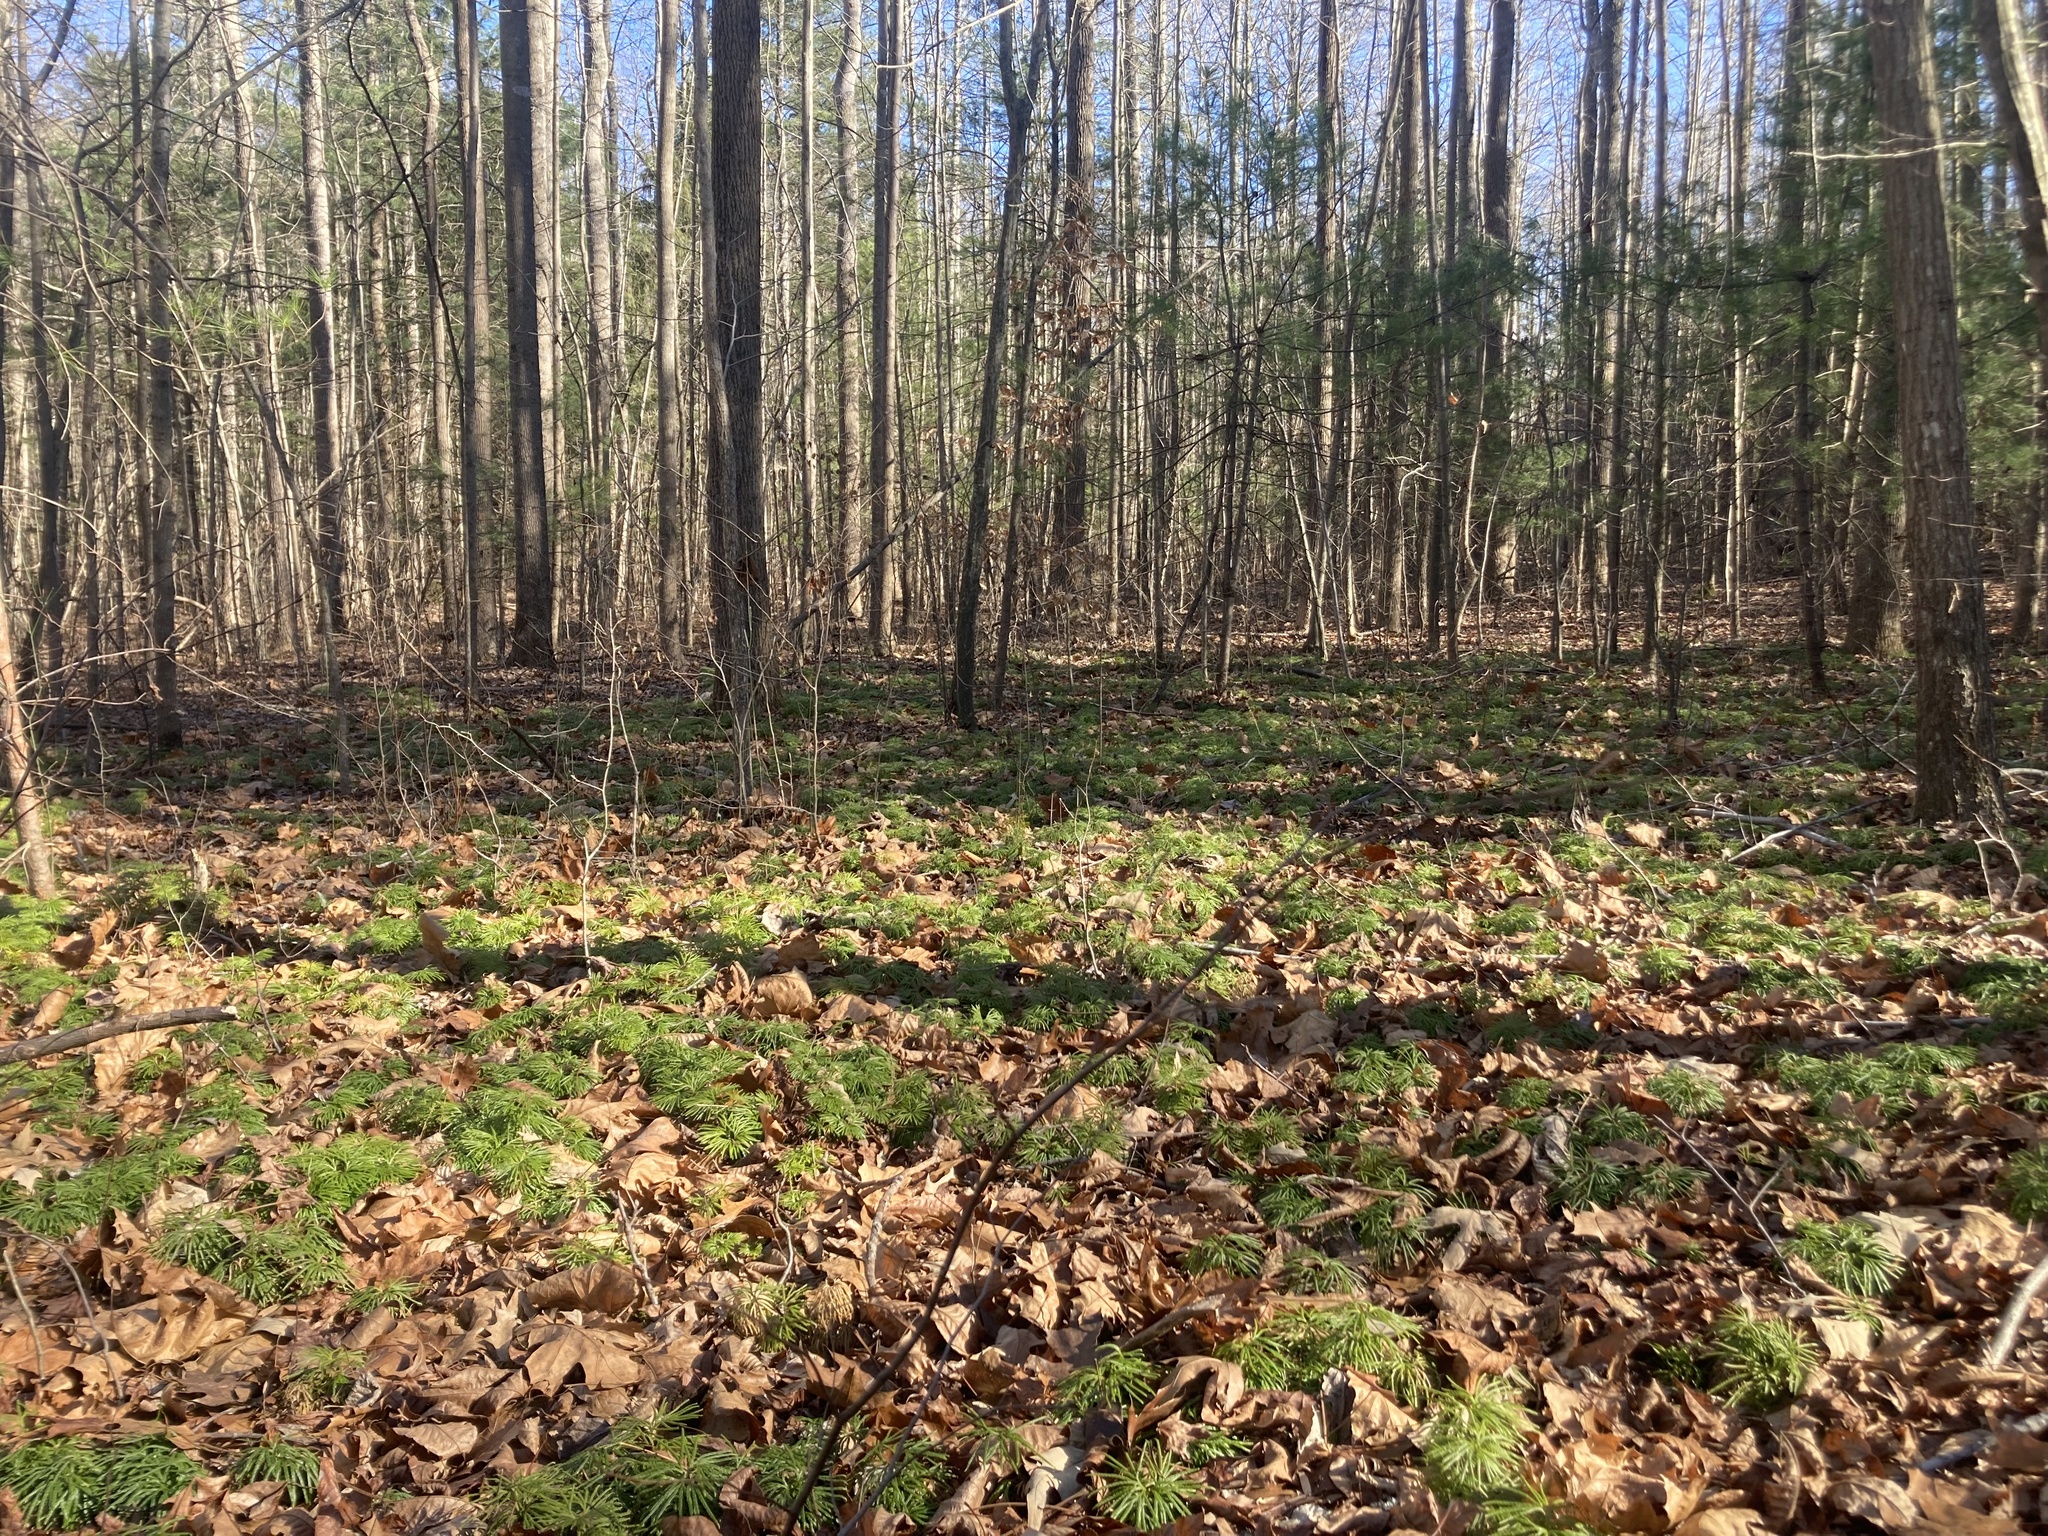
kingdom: Plantae
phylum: Tracheophyta
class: Lycopodiopsida
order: Lycopodiales
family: Lycopodiaceae
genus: Diphasiastrum
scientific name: Diphasiastrum digitatum
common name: Southern running-pine
